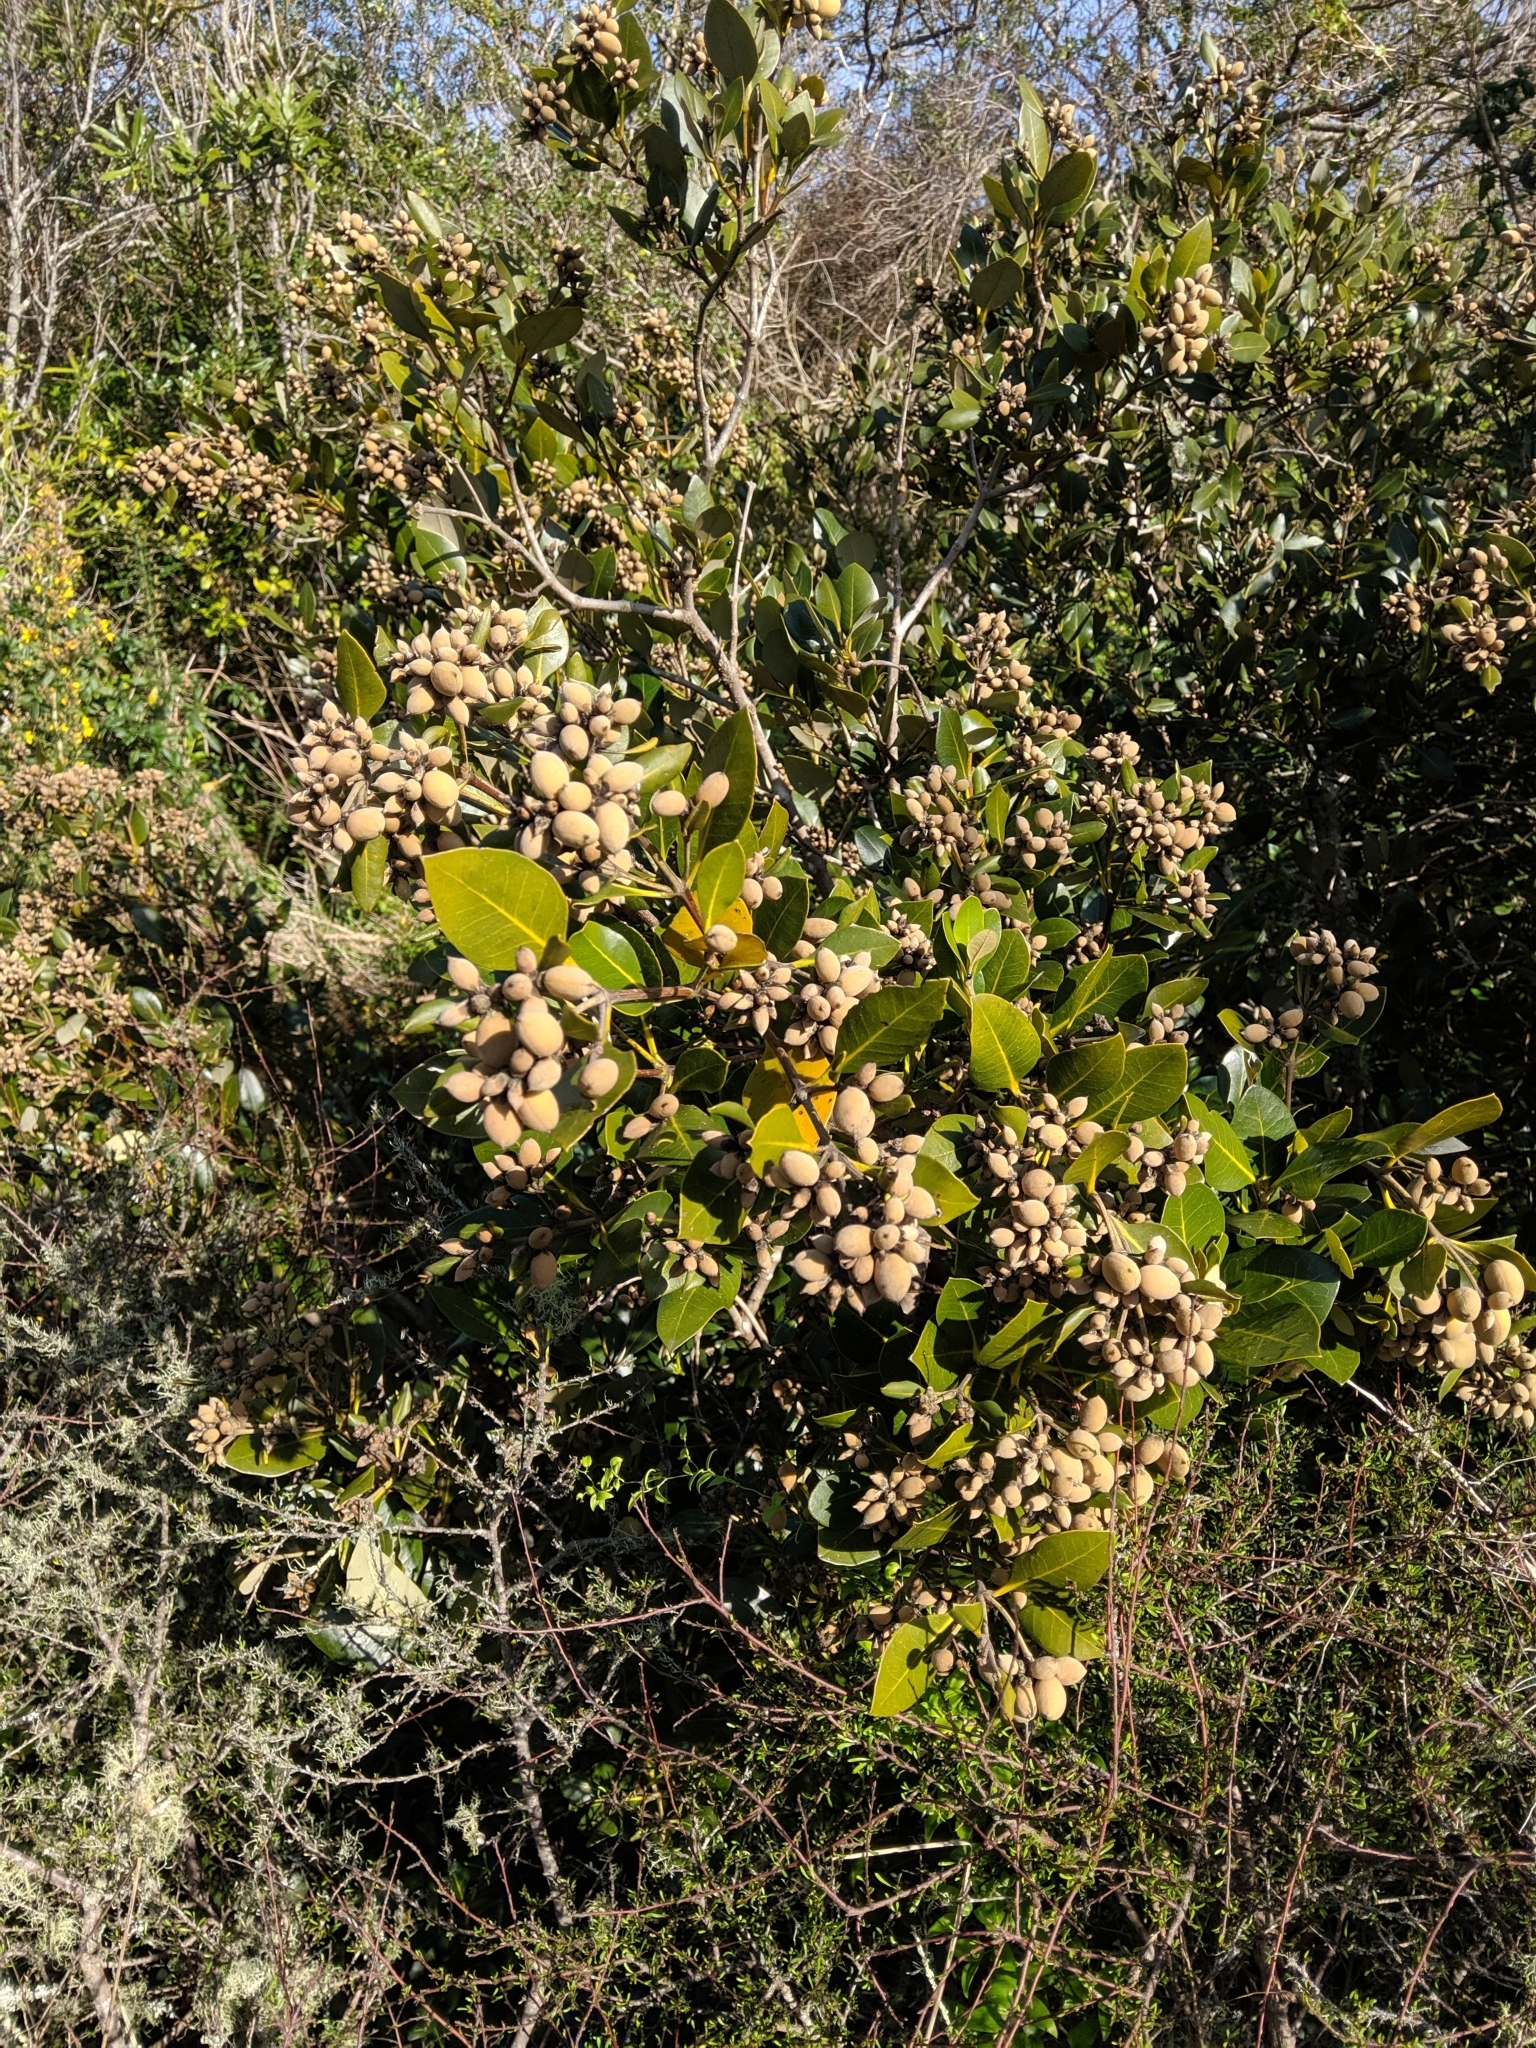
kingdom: Plantae
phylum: Tracheophyta
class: Magnoliopsida
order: Lamiales
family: Acanthaceae
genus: Avicennia
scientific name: Avicennia marina
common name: Gray mangrove
